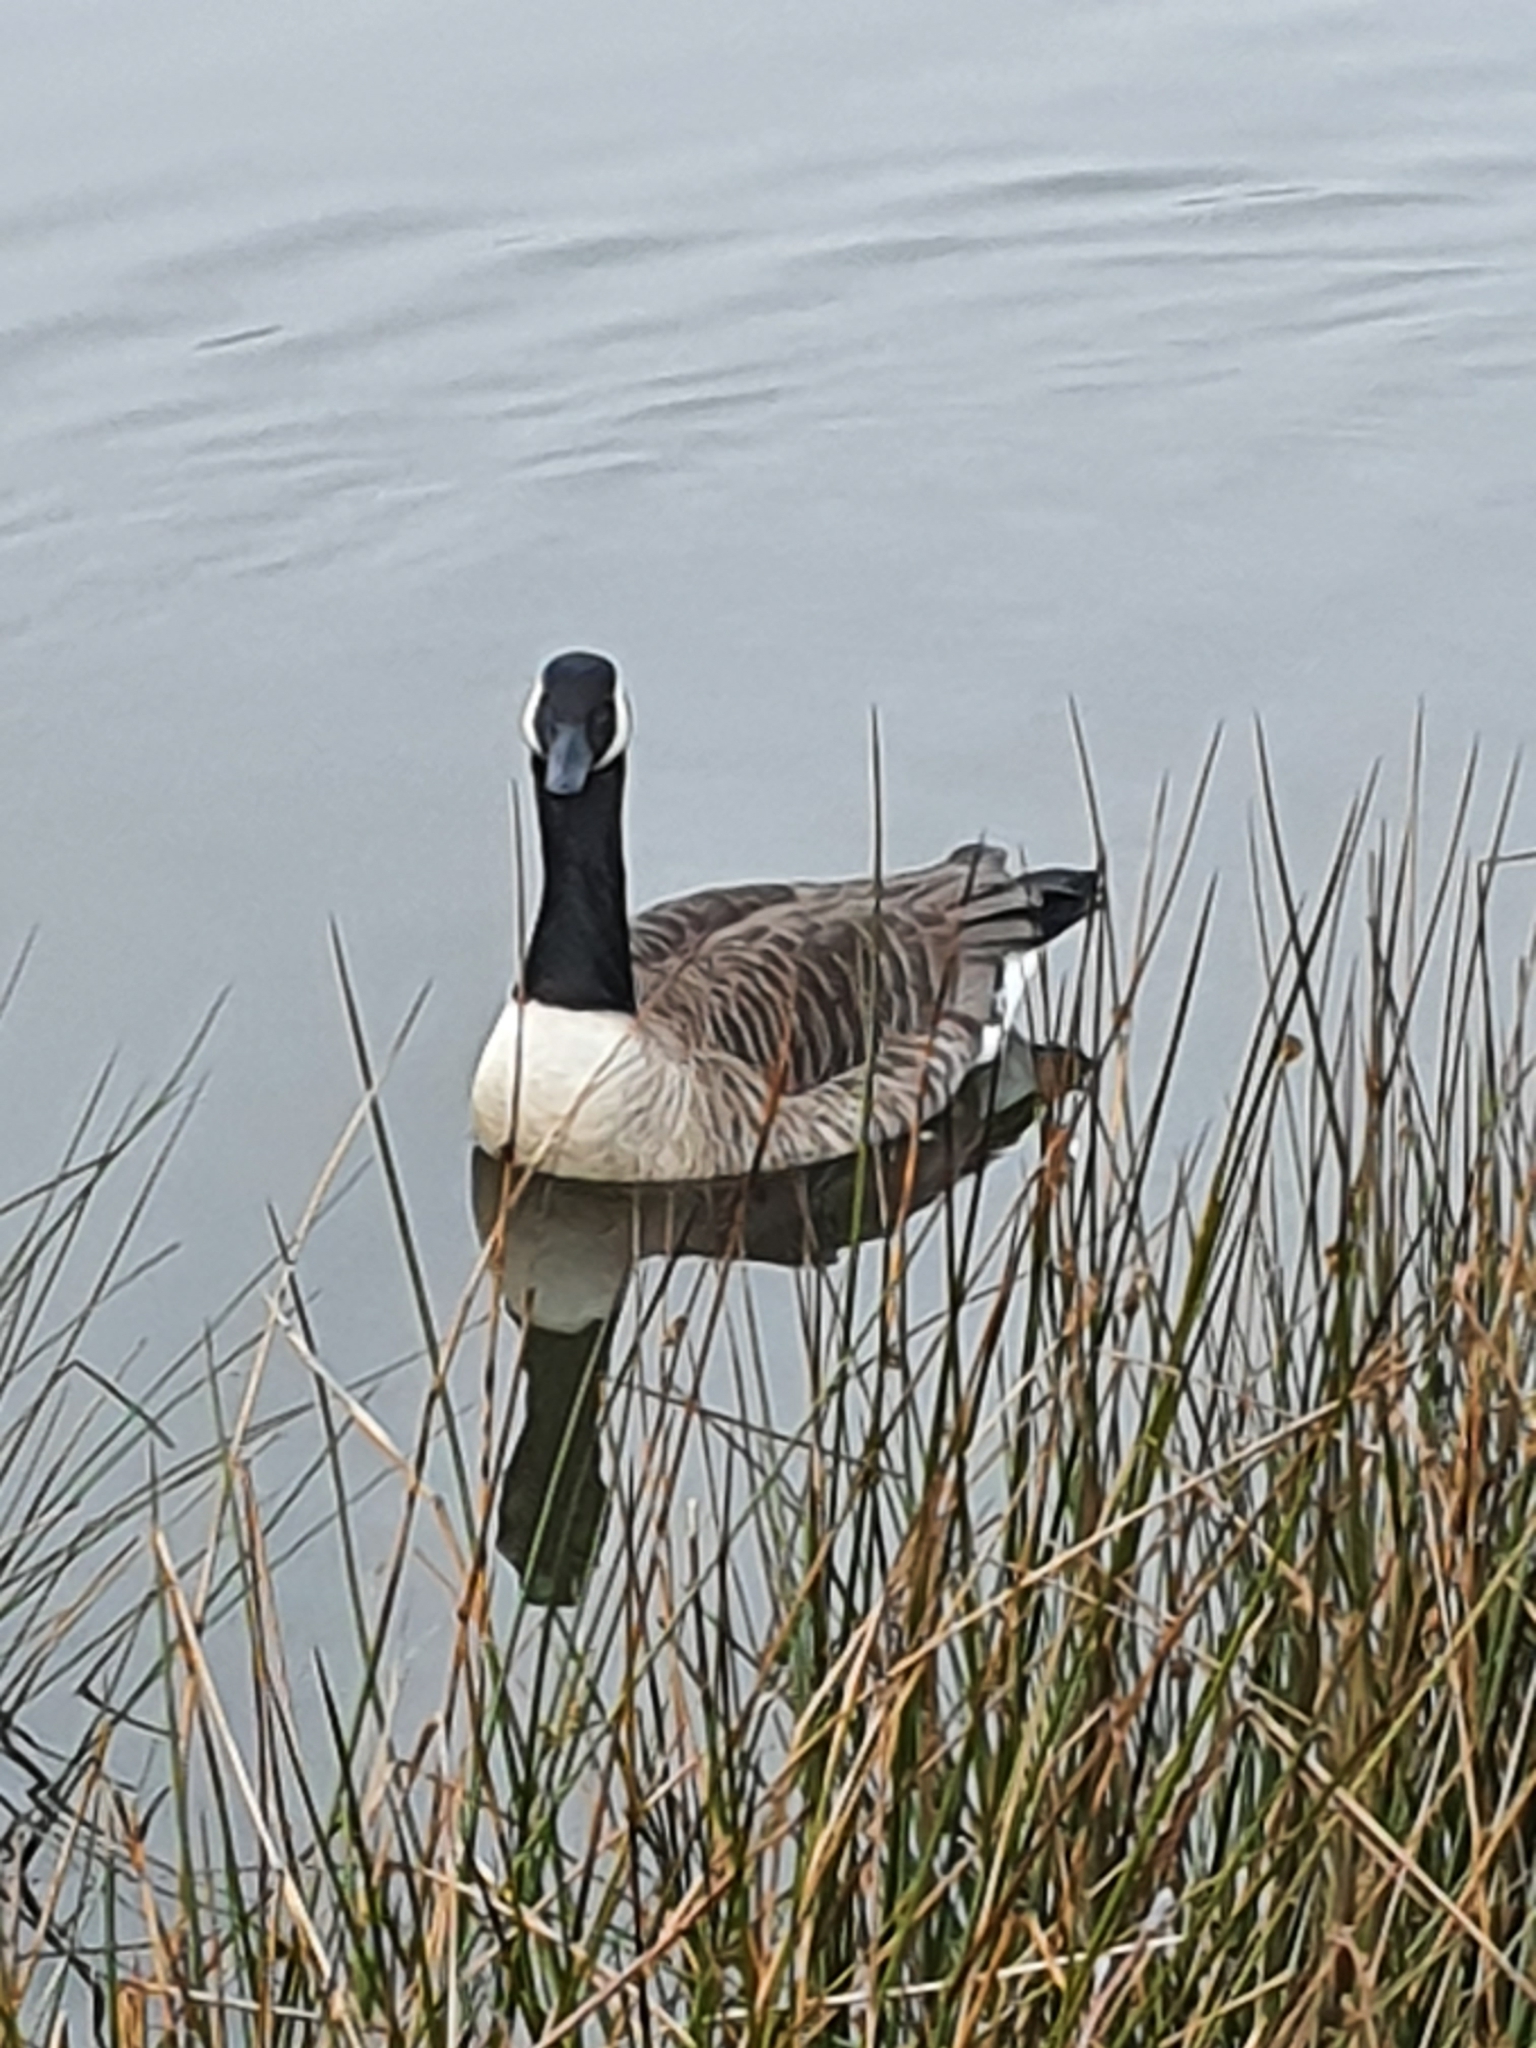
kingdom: Animalia
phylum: Chordata
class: Aves
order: Anseriformes
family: Anatidae
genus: Branta
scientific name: Branta canadensis
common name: Canada goose
